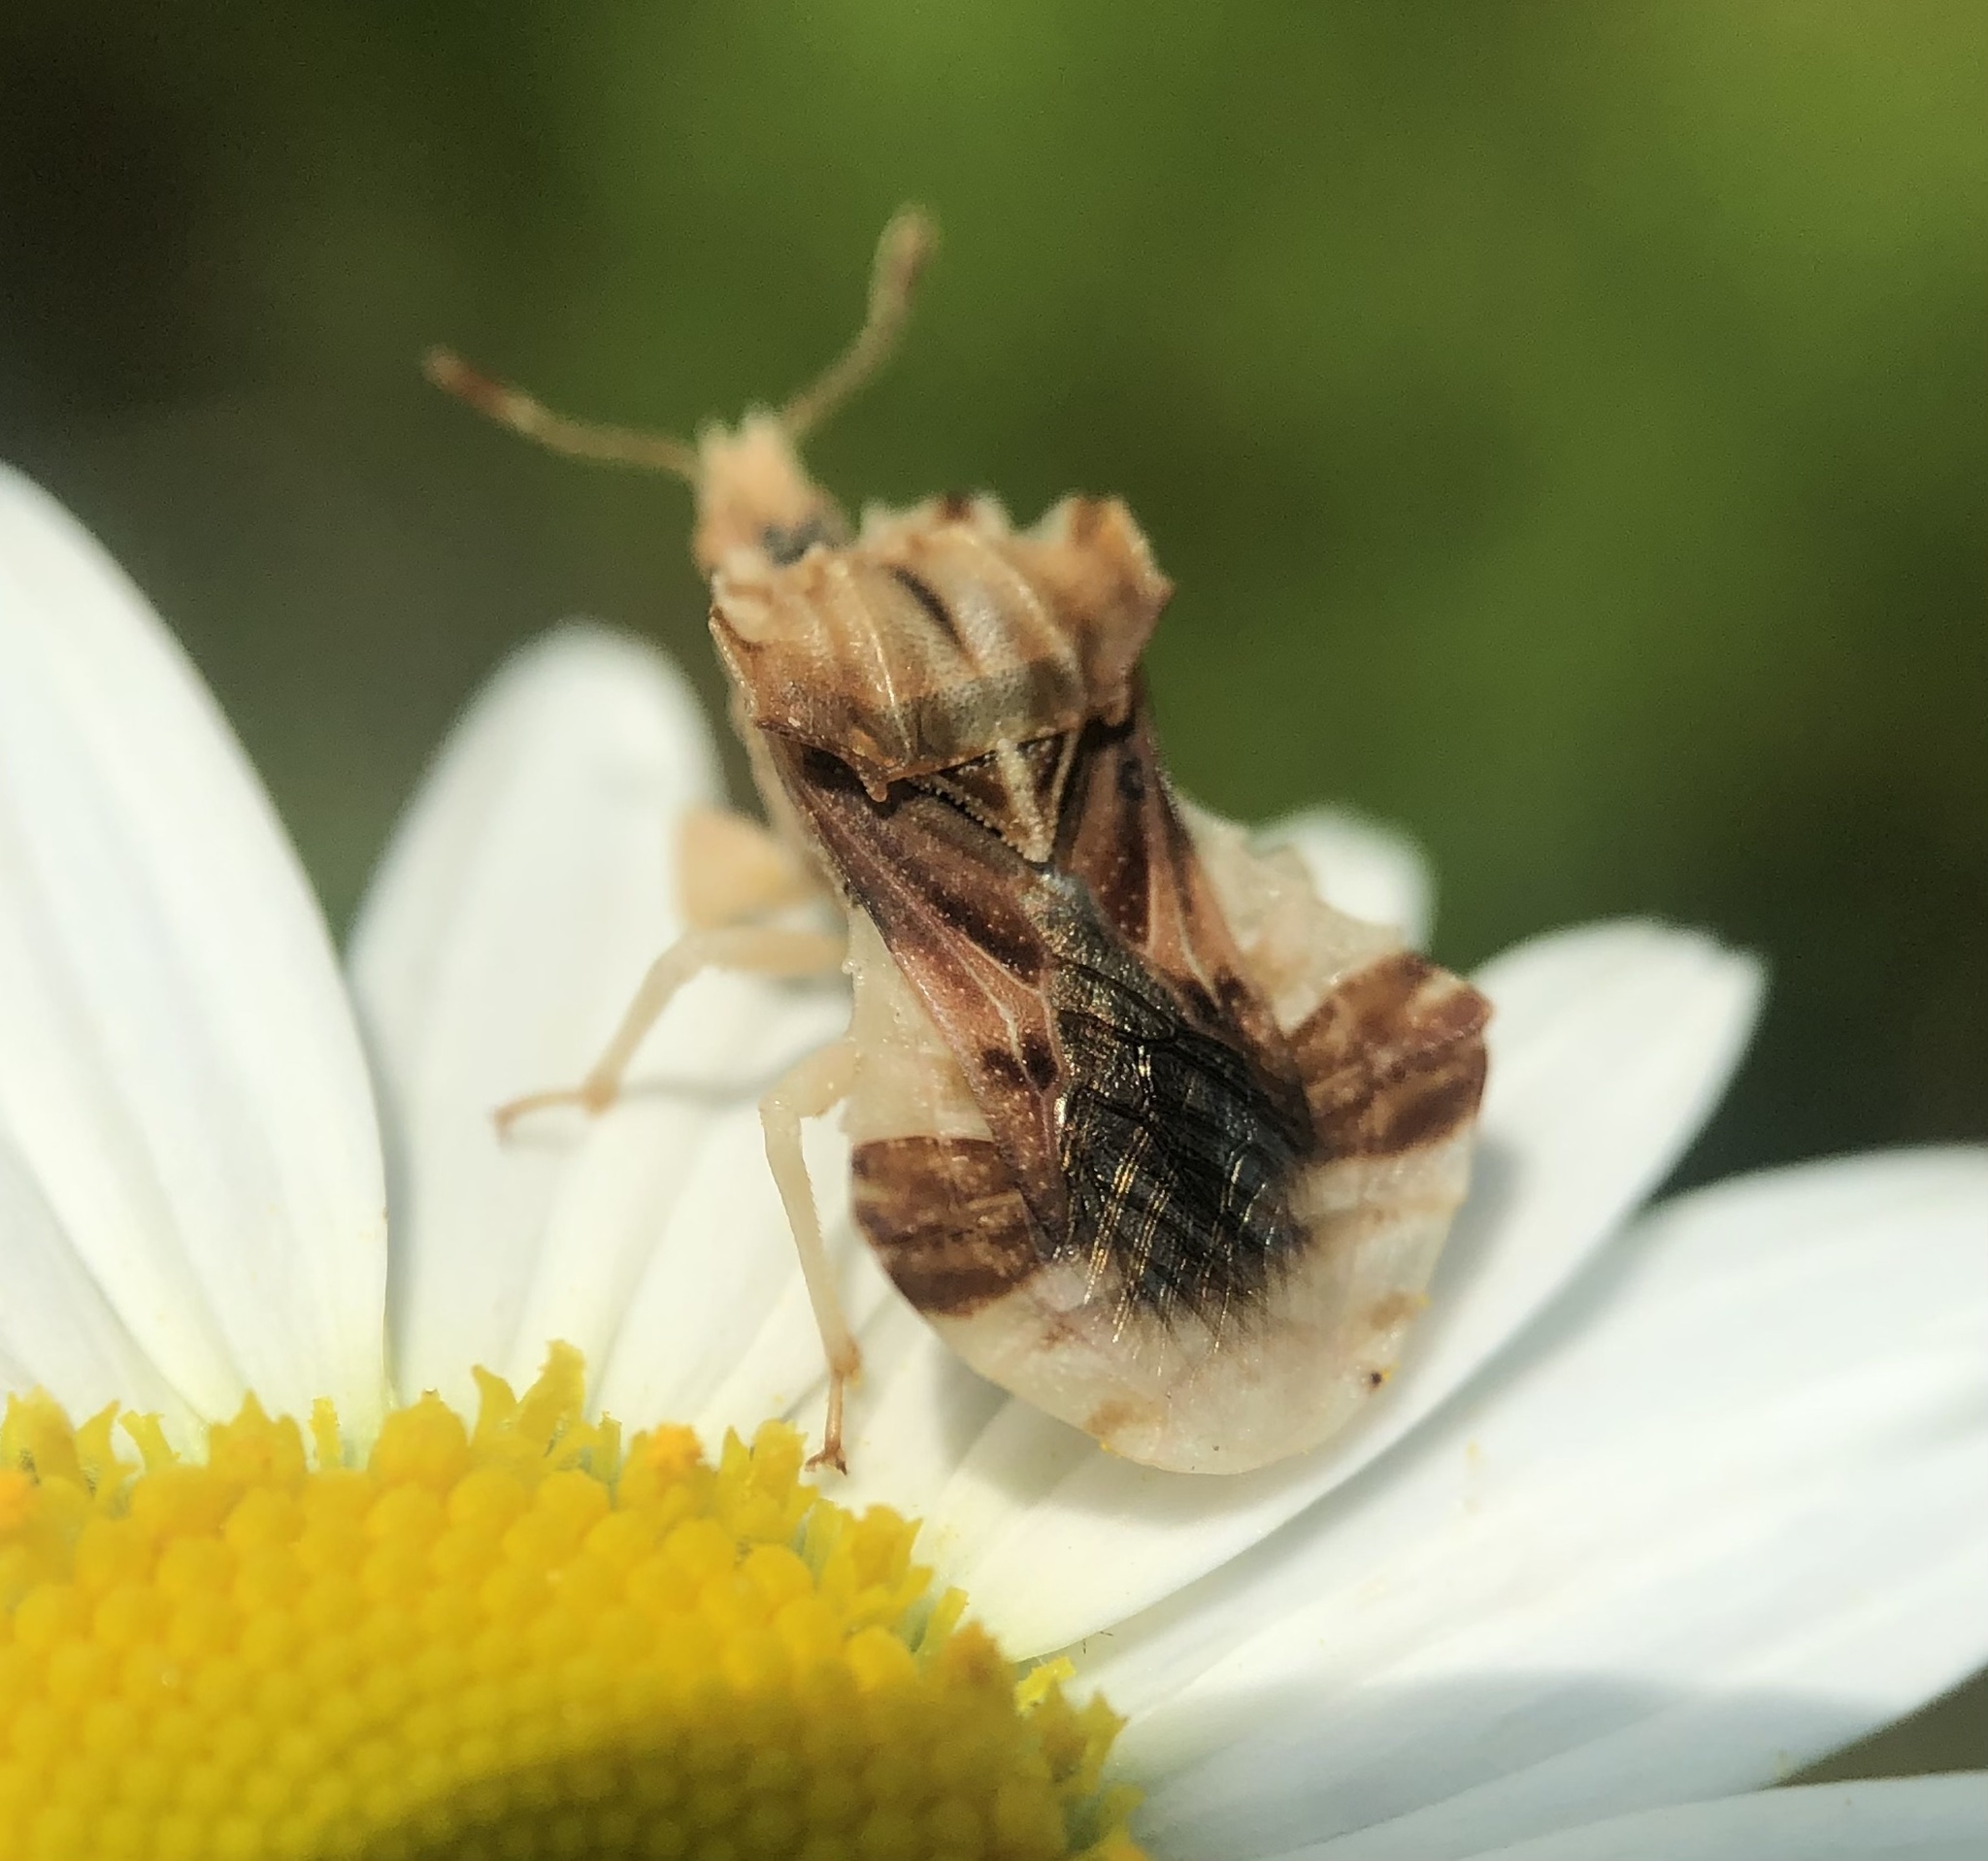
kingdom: Animalia
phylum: Arthropoda
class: Insecta
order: Hemiptera
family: Reduviidae
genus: Phymata
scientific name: Phymata fasciata
